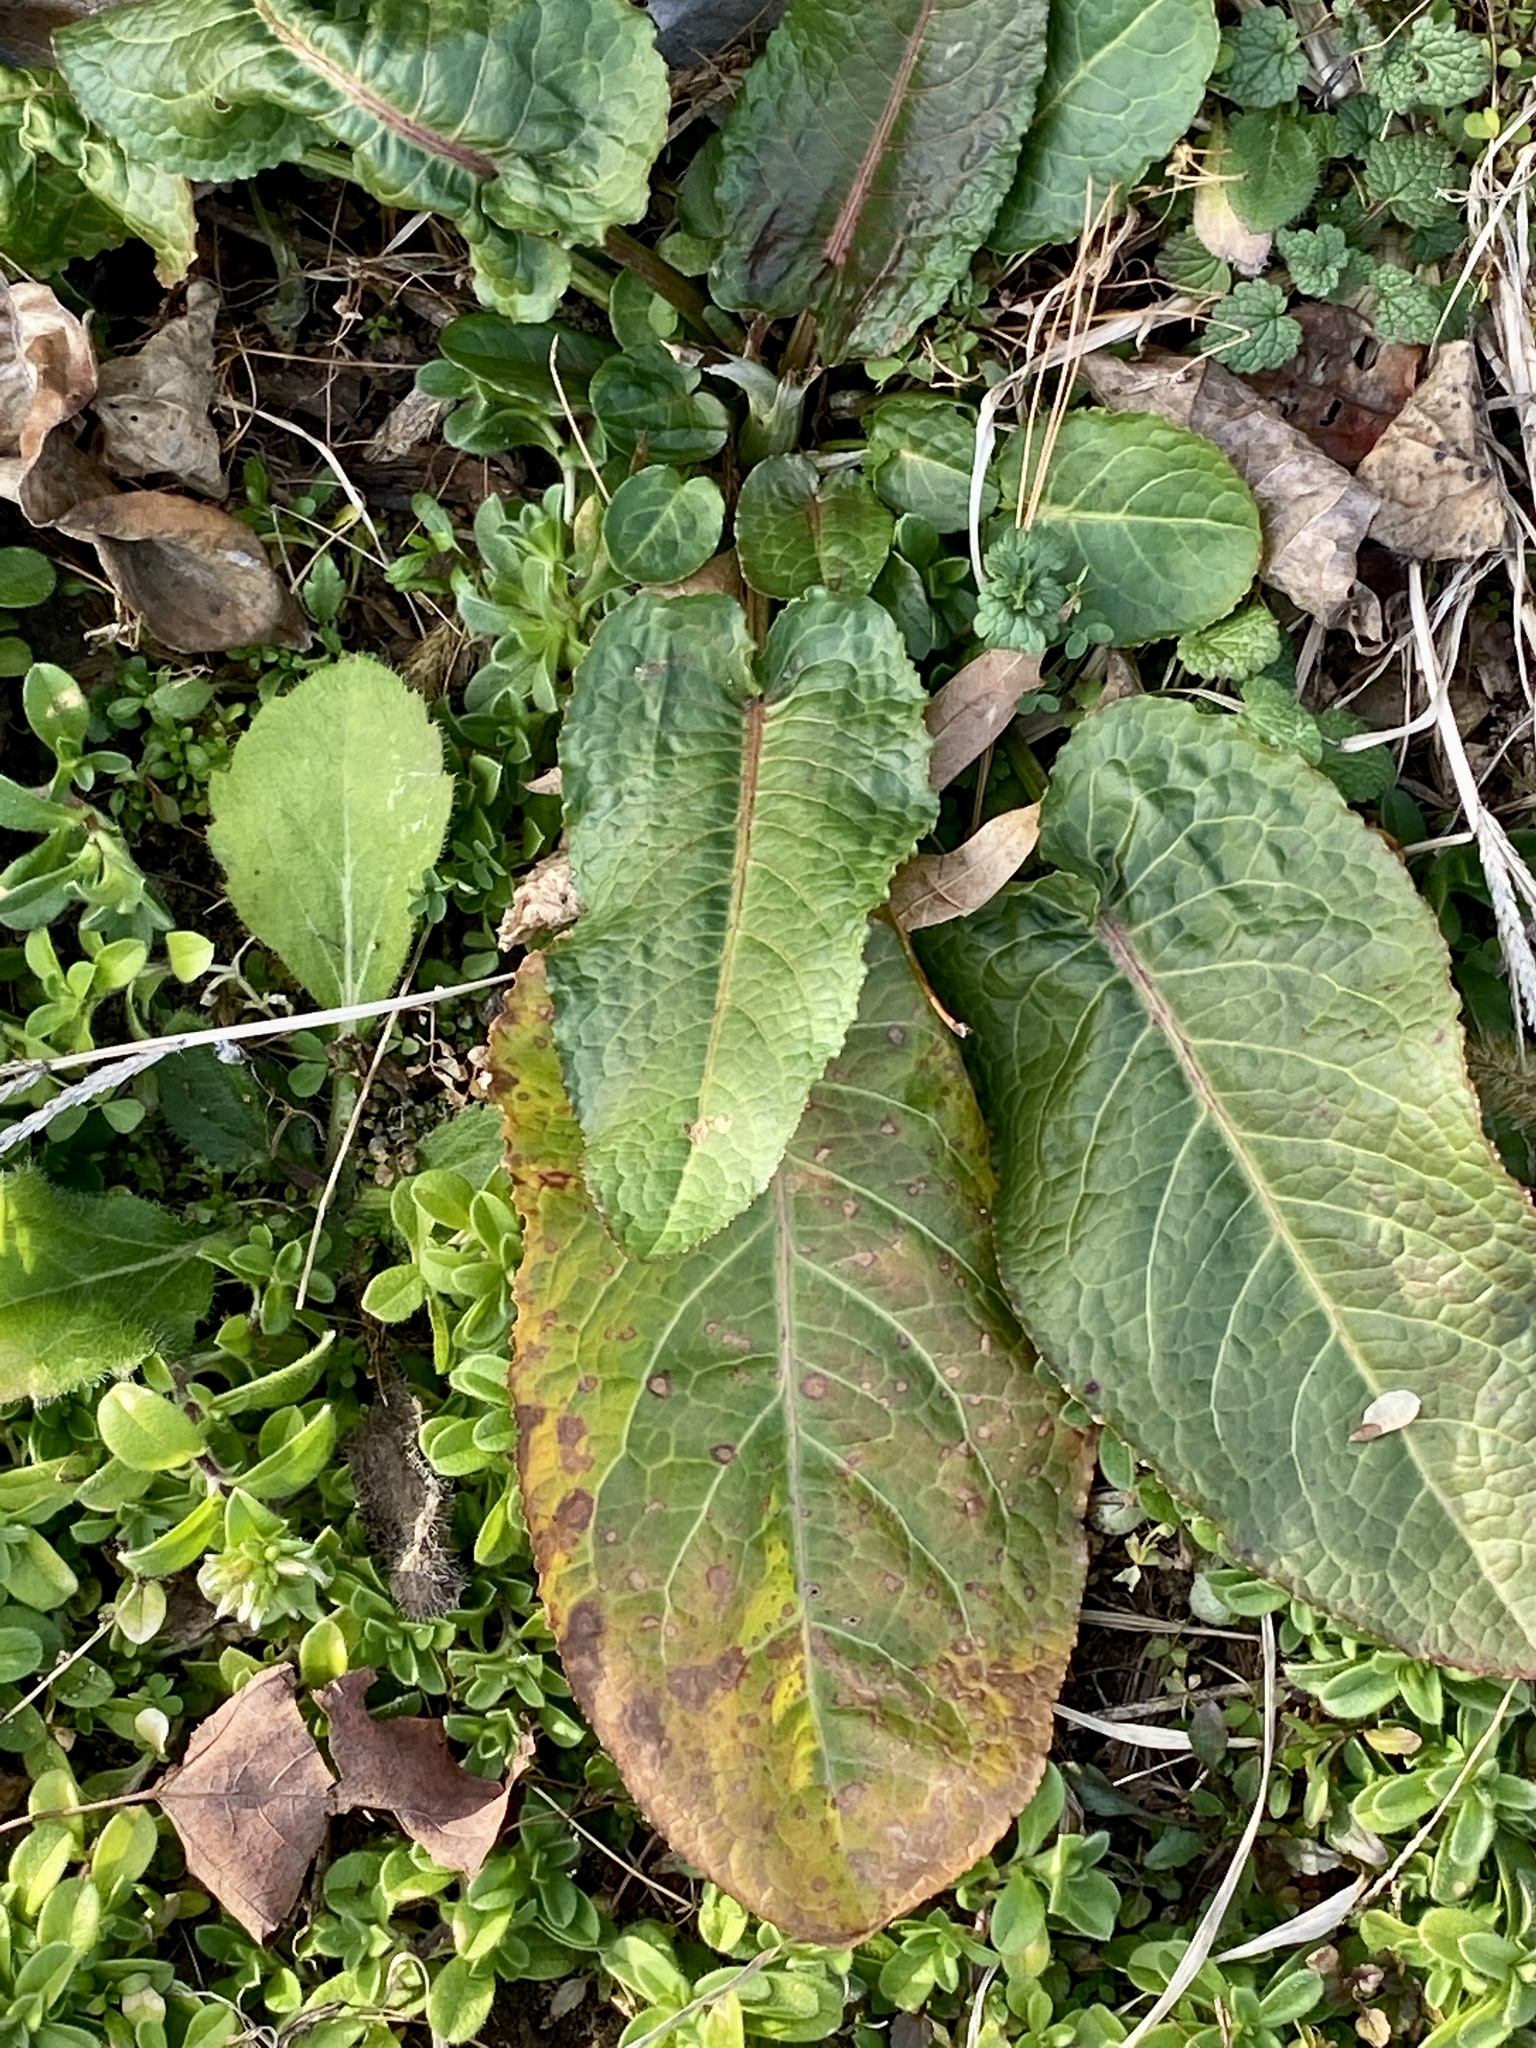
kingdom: Plantae
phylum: Tracheophyta
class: Magnoliopsida
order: Caryophyllales
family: Polygonaceae
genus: Rumex
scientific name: Rumex obtusifolius
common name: Bitter dock
